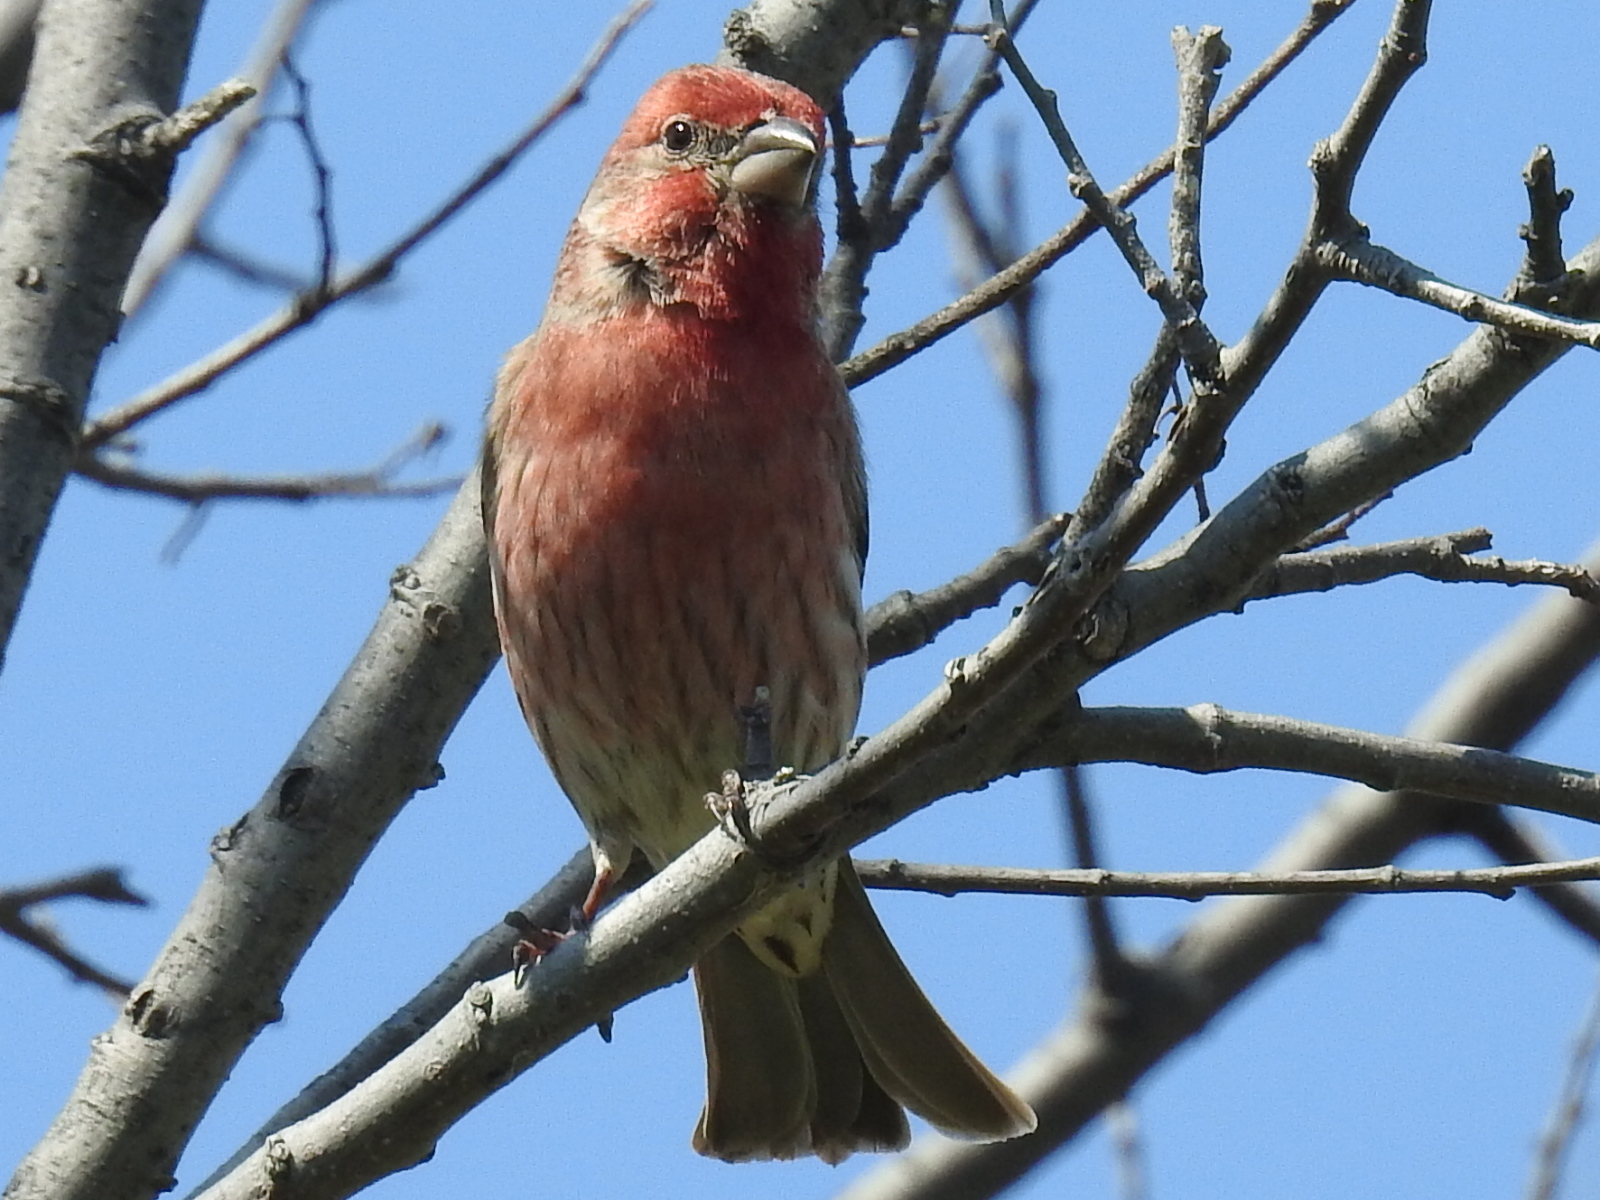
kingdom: Animalia
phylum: Chordata
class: Aves
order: Passeriformes
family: Fringillidae
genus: Haemorhous
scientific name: Haemorhous mexicanus
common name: House finch
